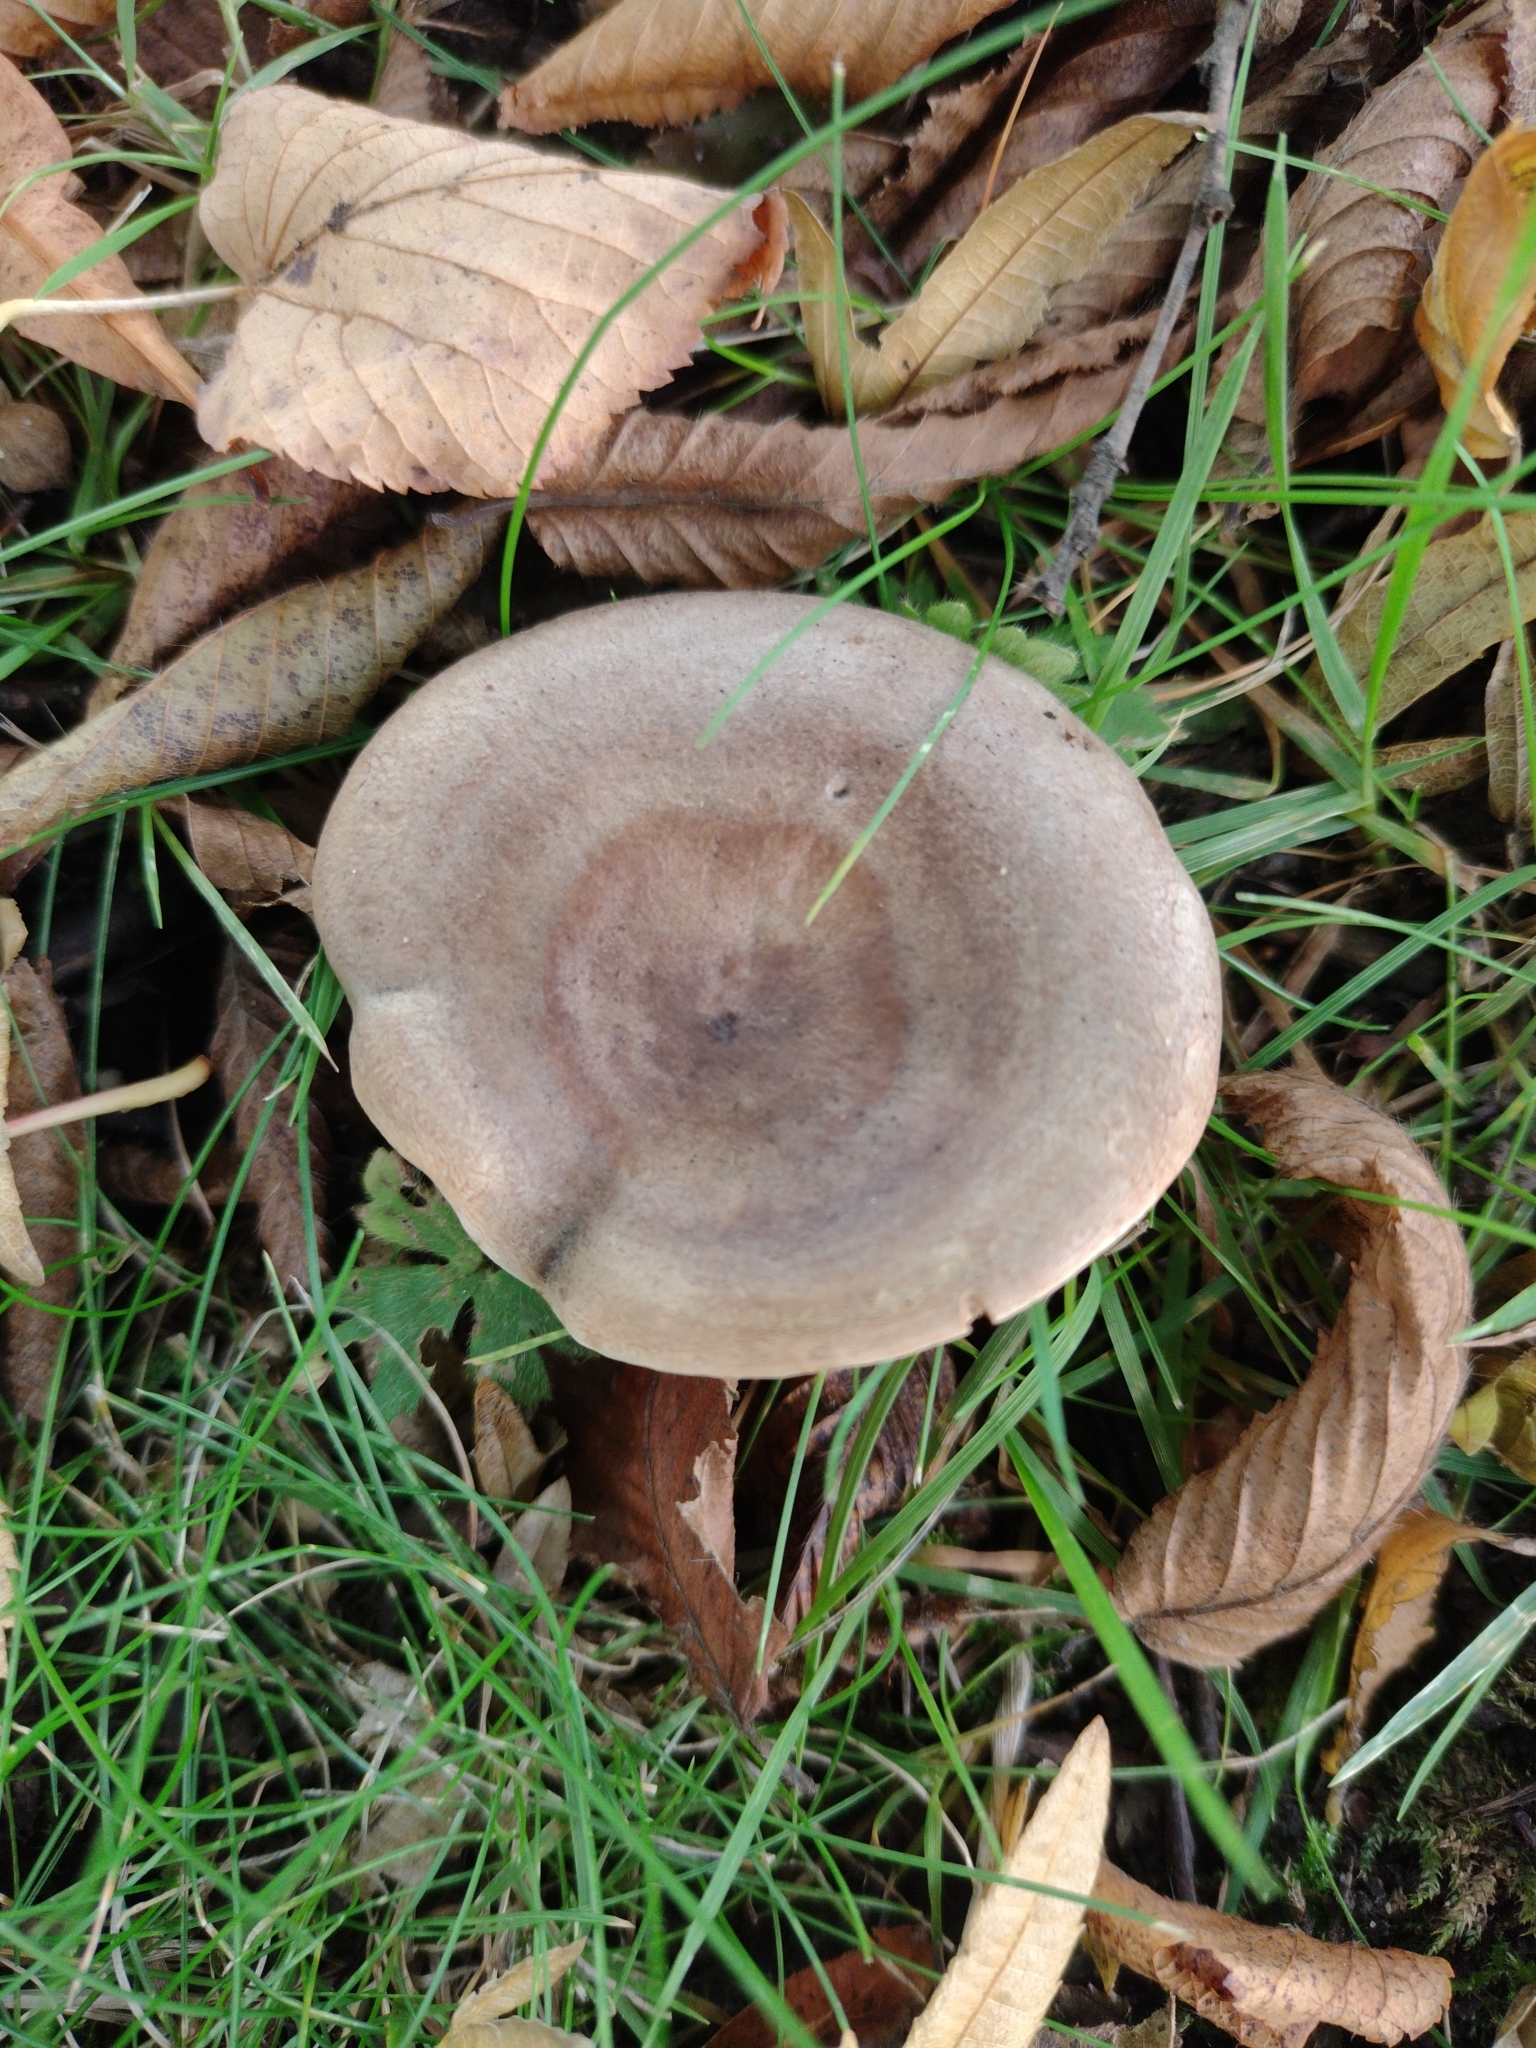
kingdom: Fungi
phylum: Basidiomycota
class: Agaricomycetes
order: Russulales
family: Russulaceae
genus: Lactarius
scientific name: Lactarius circellatus
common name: Circled milkcap
